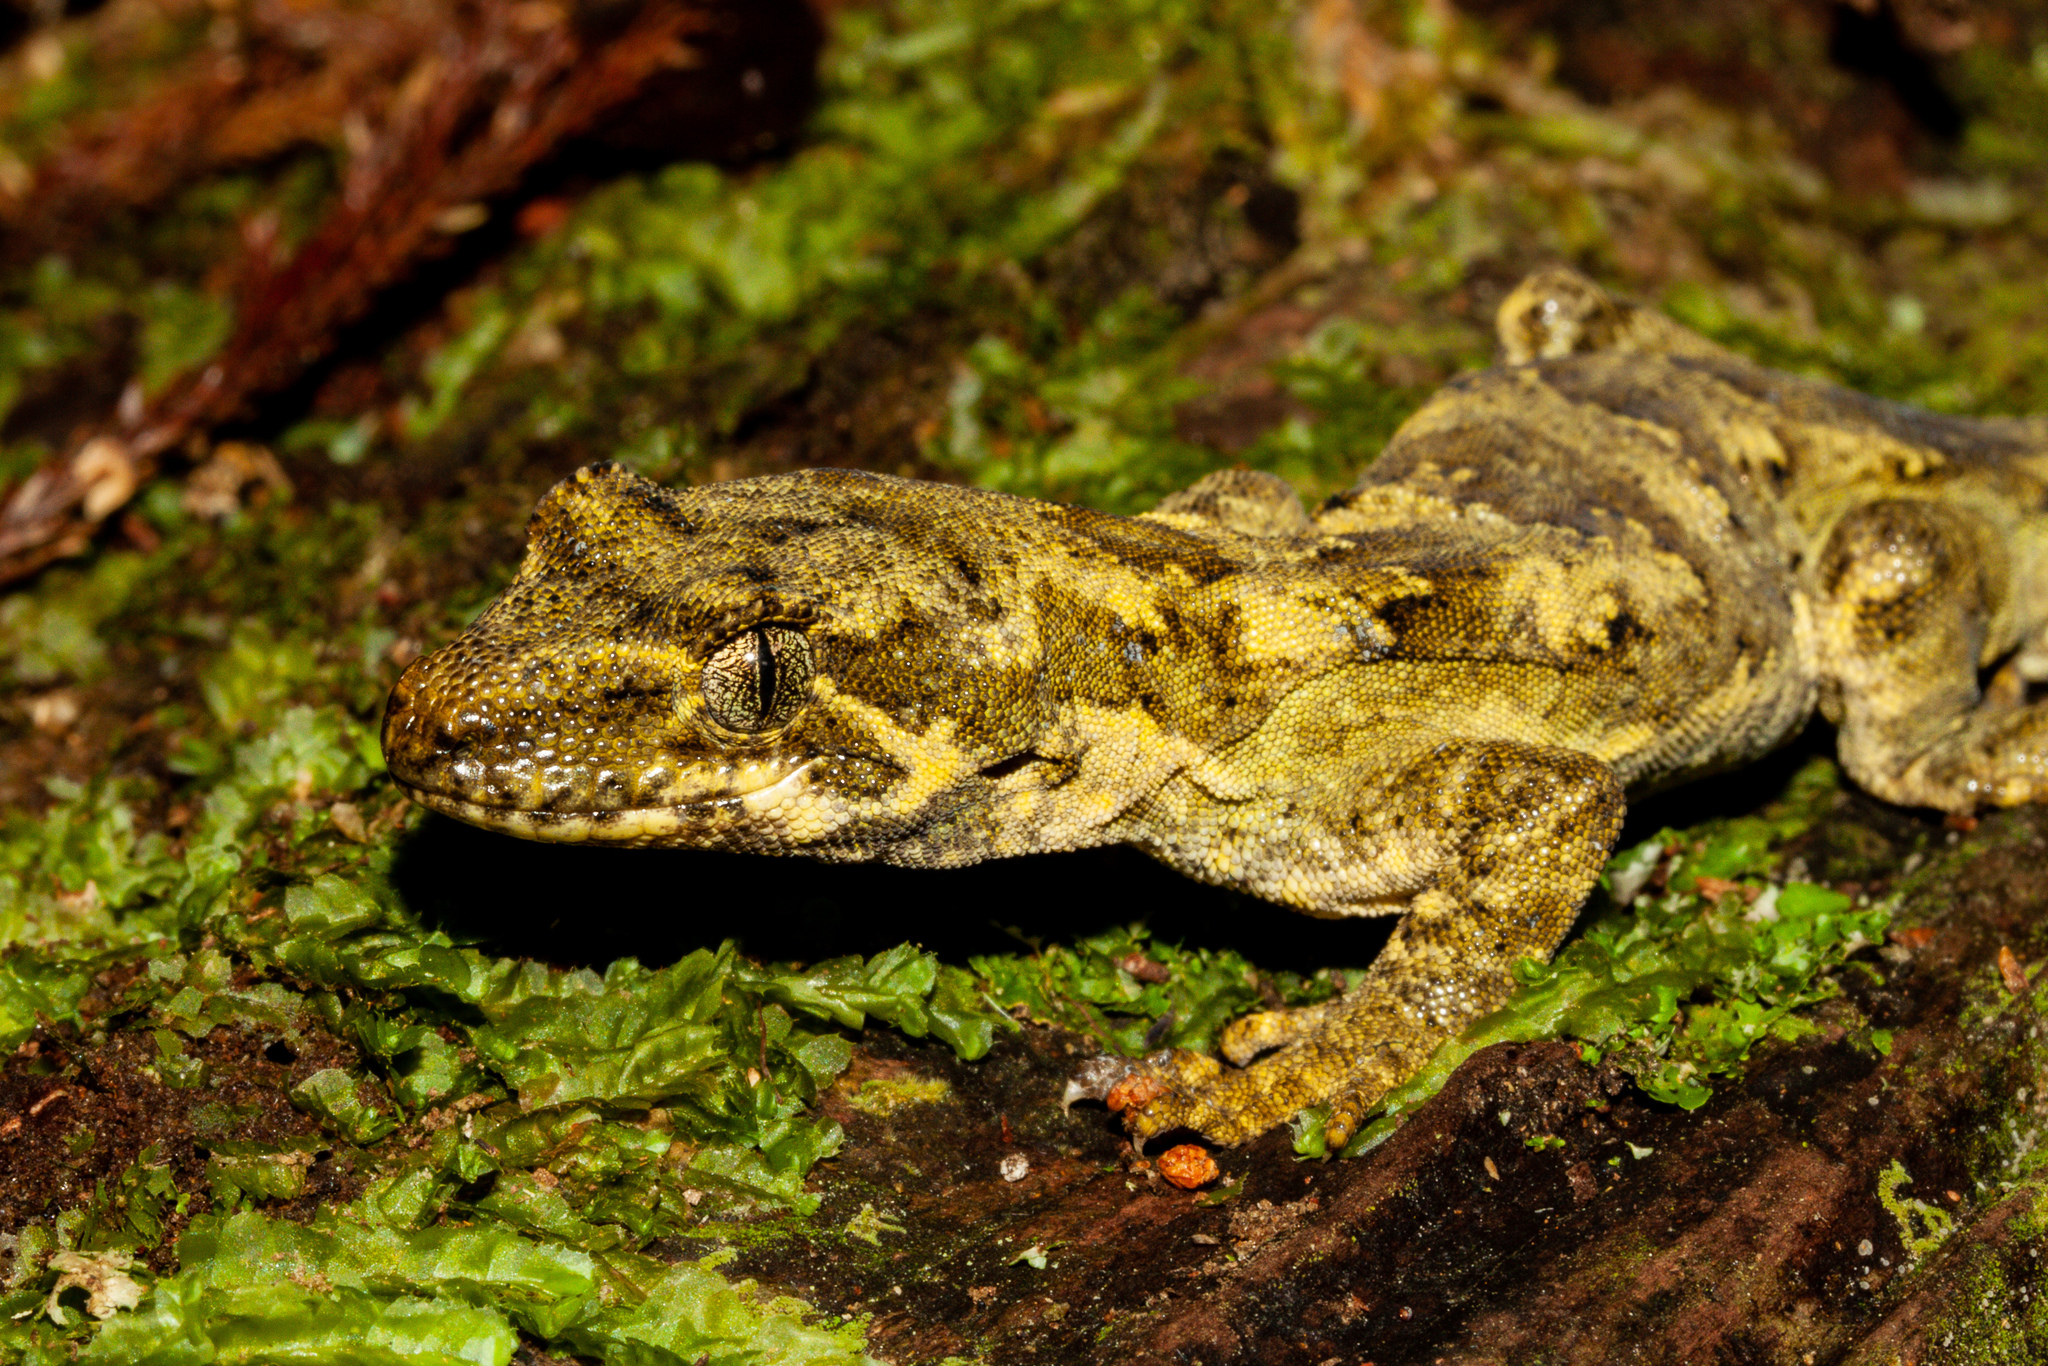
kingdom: Animalia
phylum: Chordata
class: Squamata
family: Diplodactylidae
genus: Mokopirirakau
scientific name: Mokopirirakau
